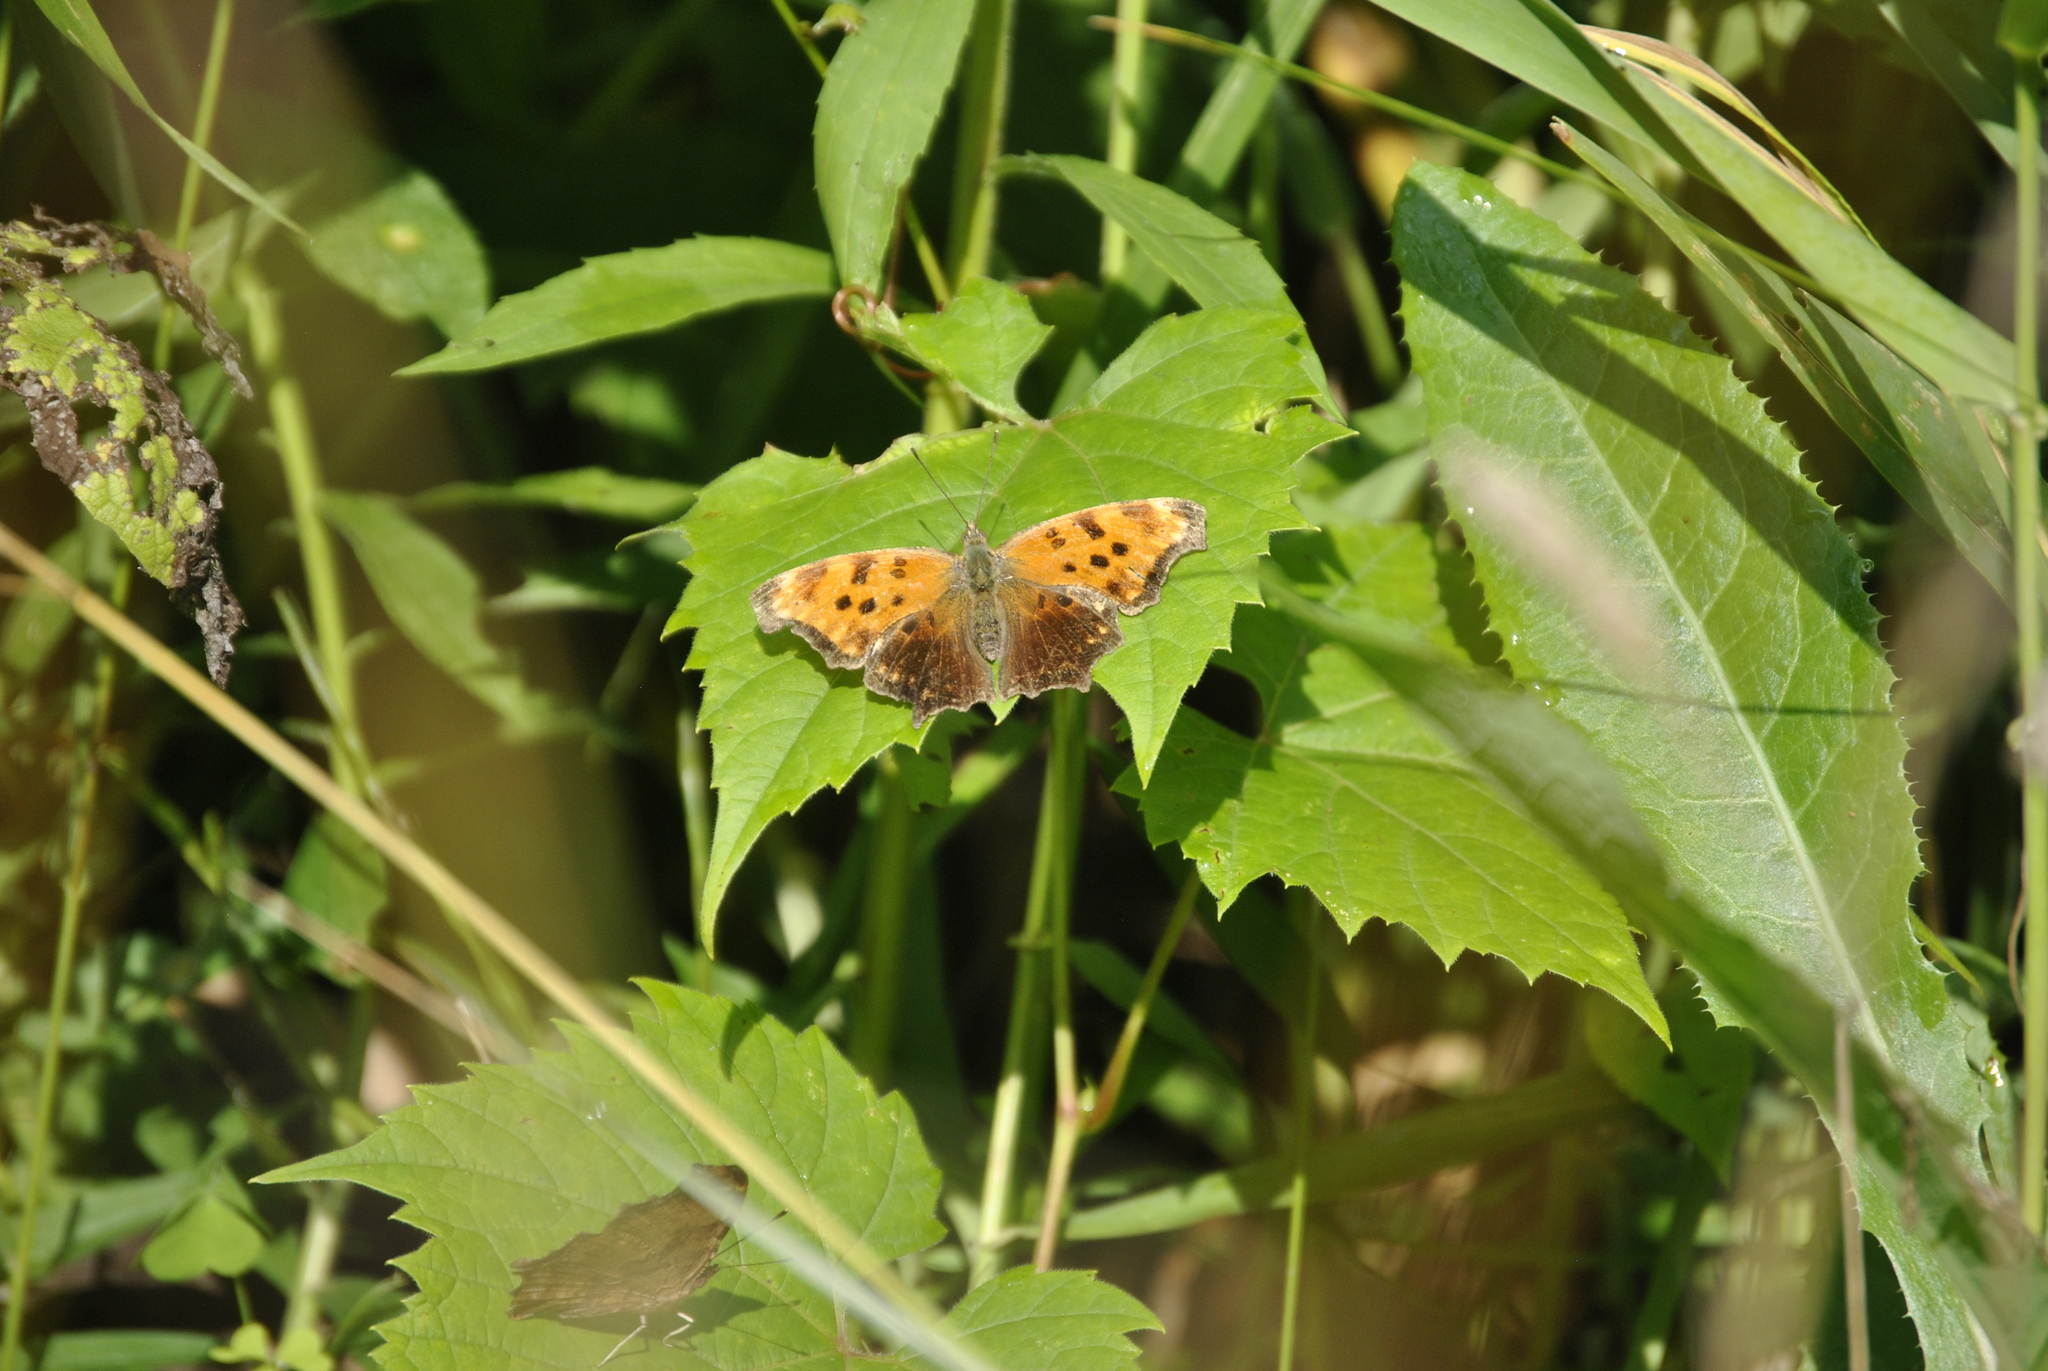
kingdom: Animalia
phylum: Arthropoda
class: Insecta
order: Lepidoptera
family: Nymphalidae
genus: Polygonia
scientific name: Polygonia comma
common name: Eastern comma
